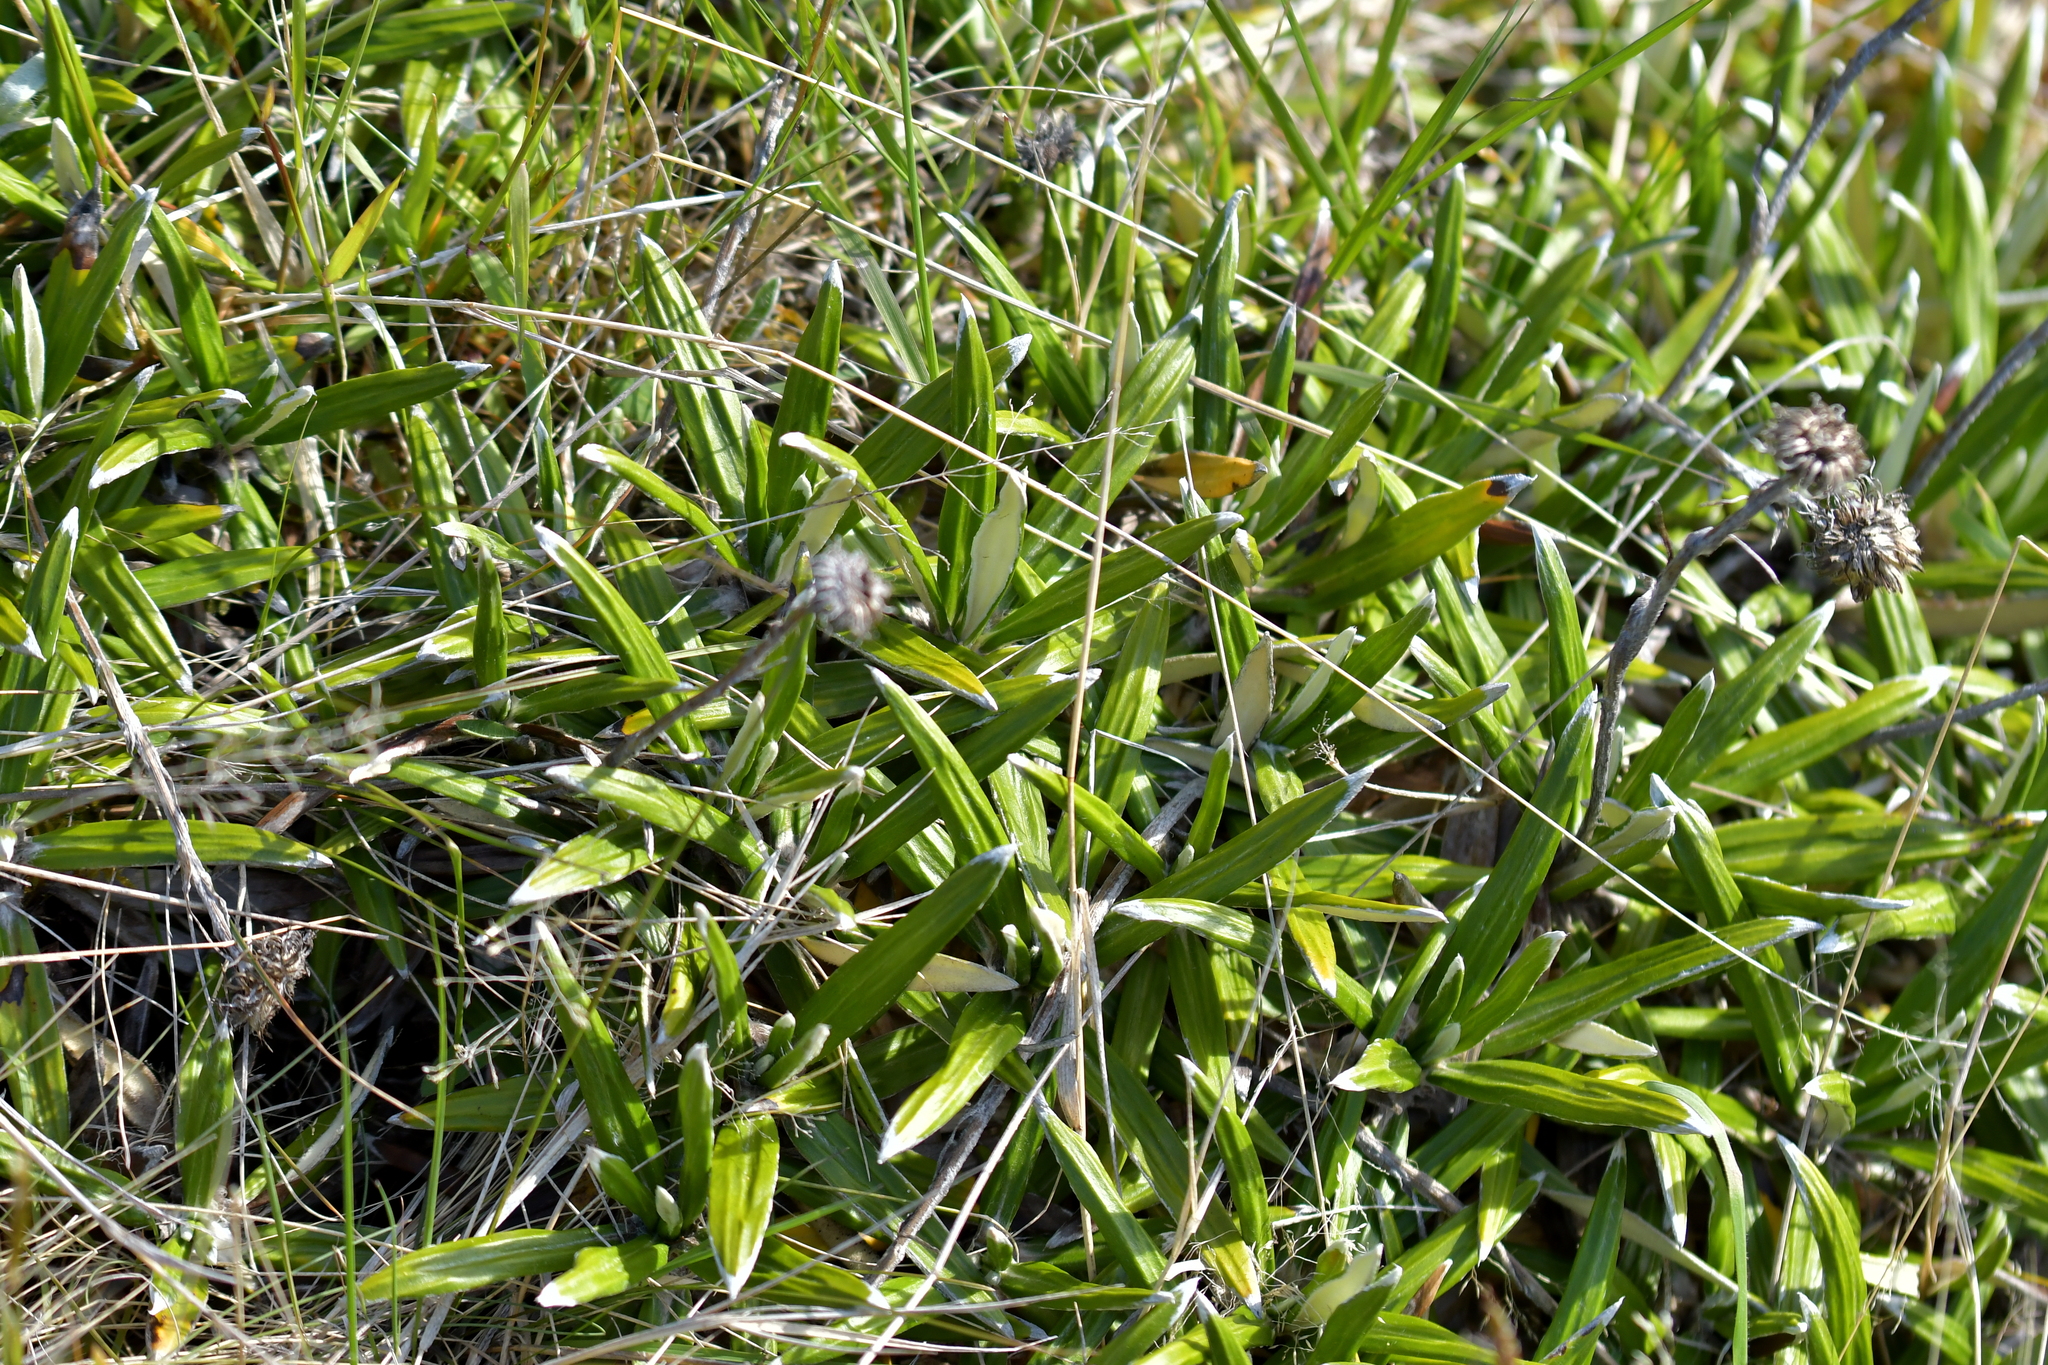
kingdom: Plantae
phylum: Tracheophyta
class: Magnoliopsida
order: Asterales
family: Asteraceae
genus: Celmisia
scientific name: Celmisia spectabilis
